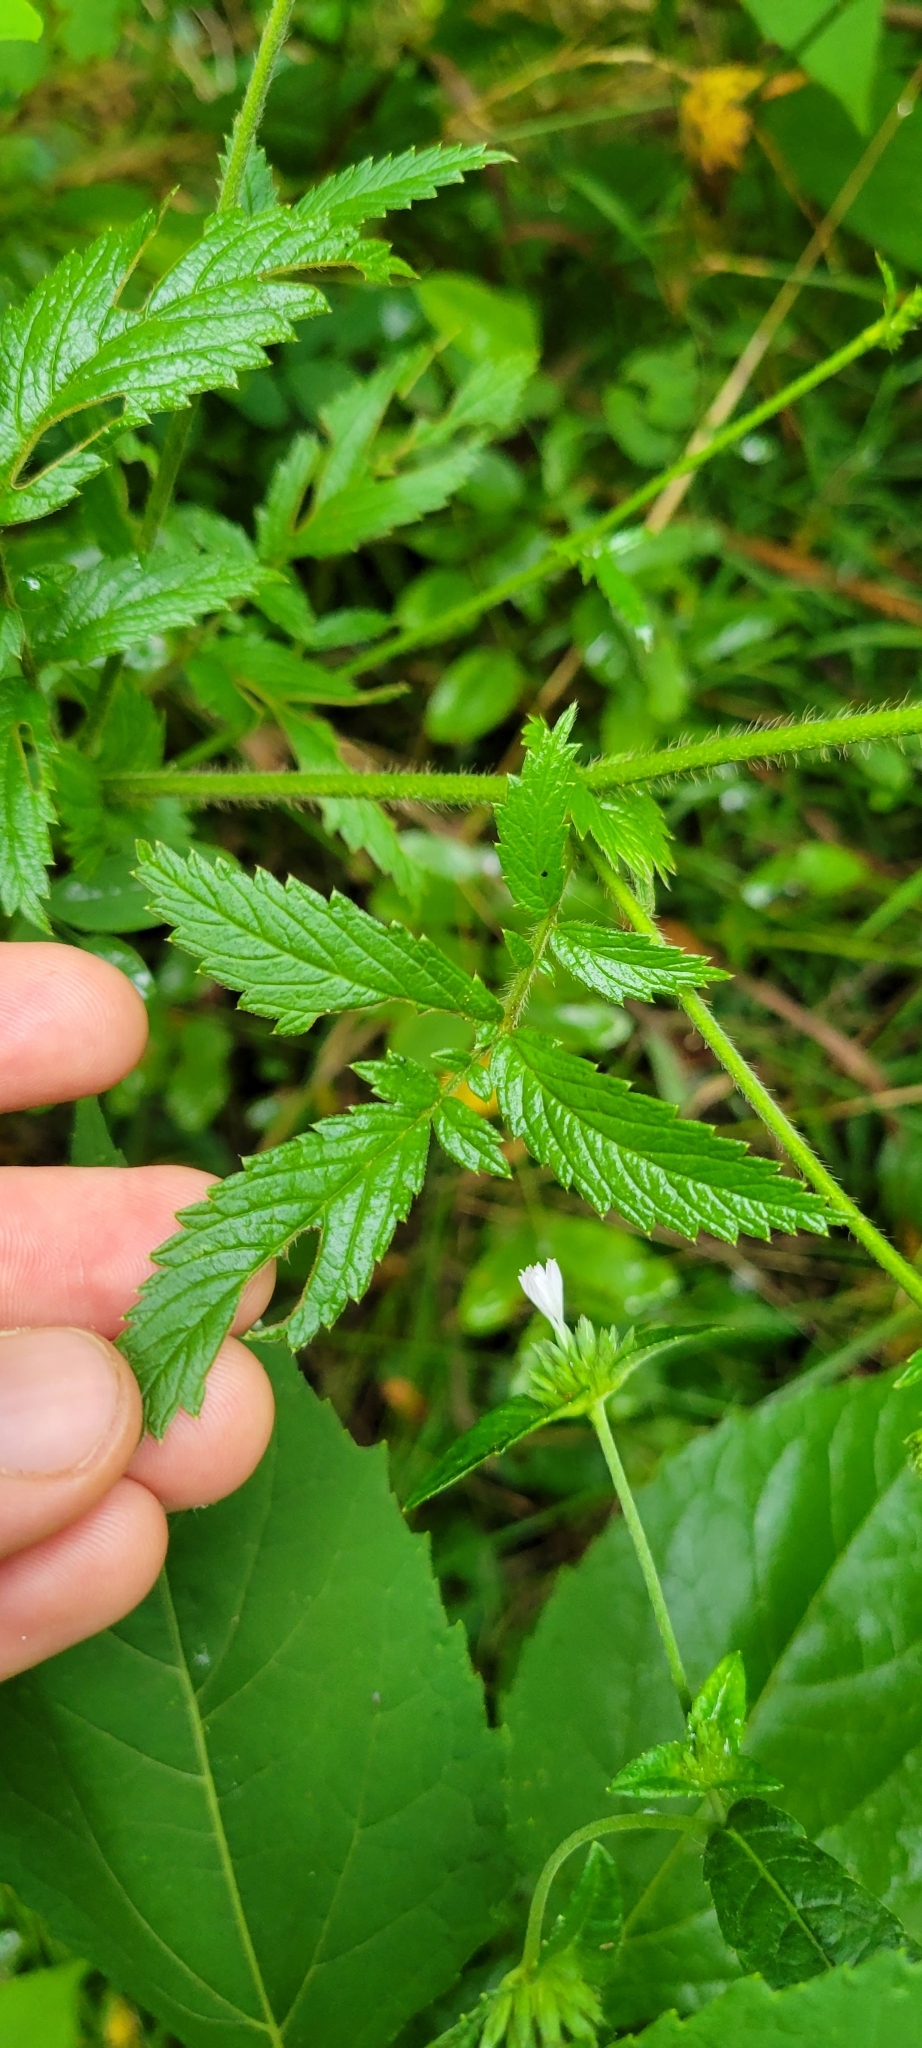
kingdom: Plantae
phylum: Tracheophyta
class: Magnoliopsida
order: Rosales
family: Rosaceae
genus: Agrimonia
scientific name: Agrimonia parviflora
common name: Harvest-lice
